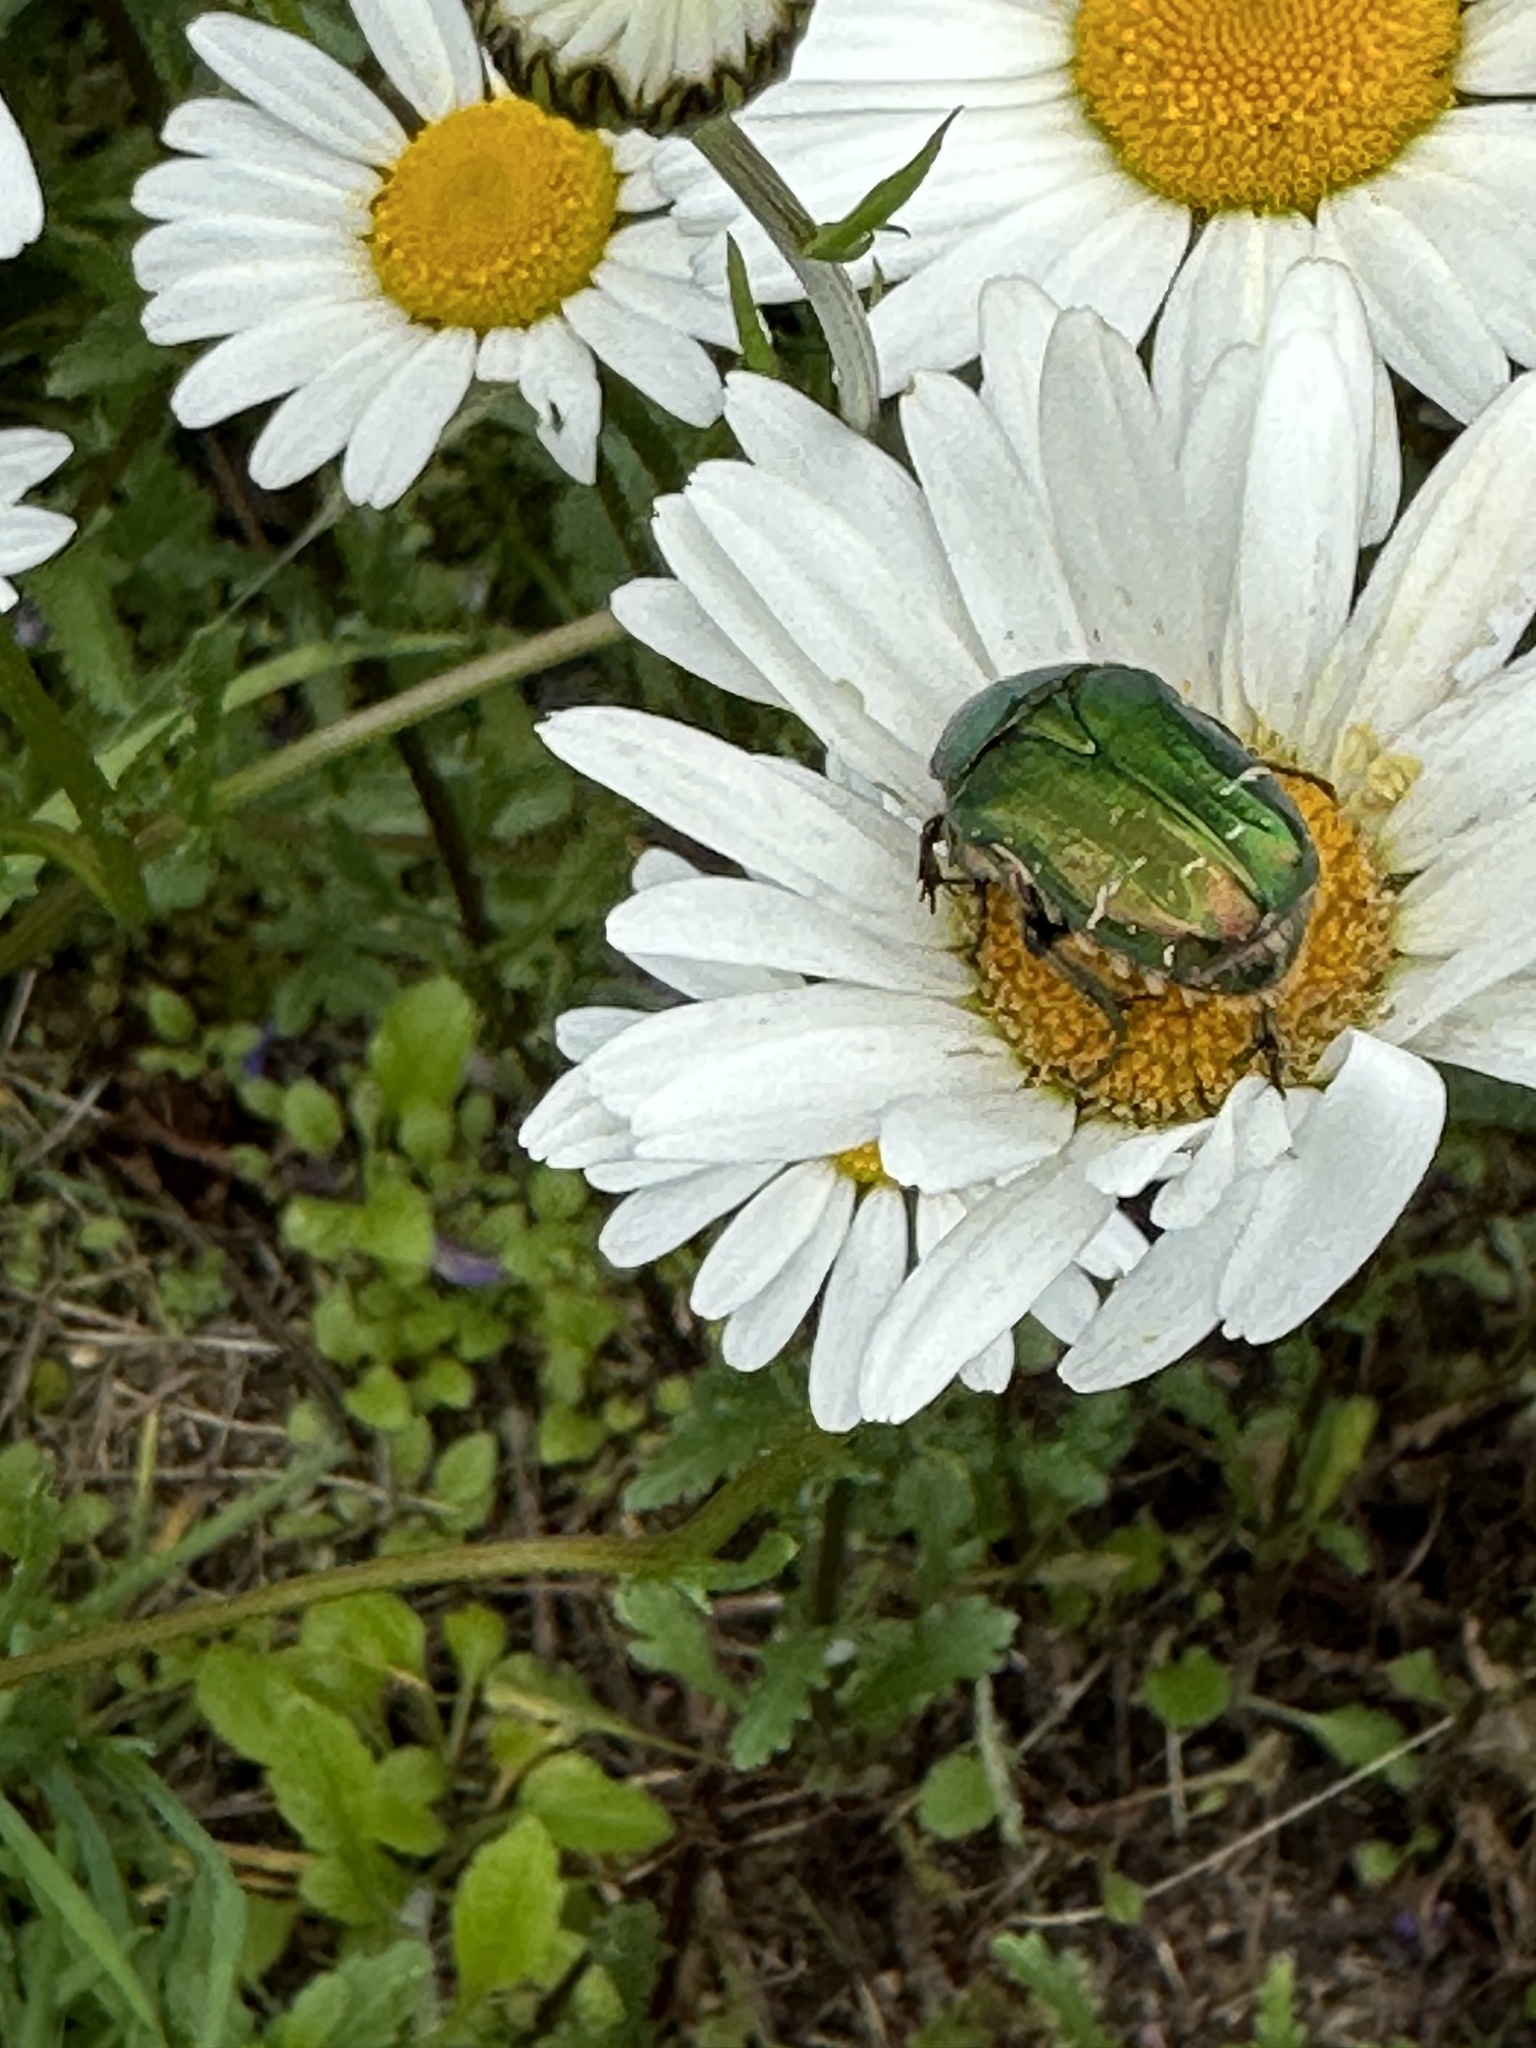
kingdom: Animalia
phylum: Arthropoda
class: Insecta
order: Coleoptera
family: Scarabaeidae
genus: Protaetia
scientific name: Protaetia cuprea
